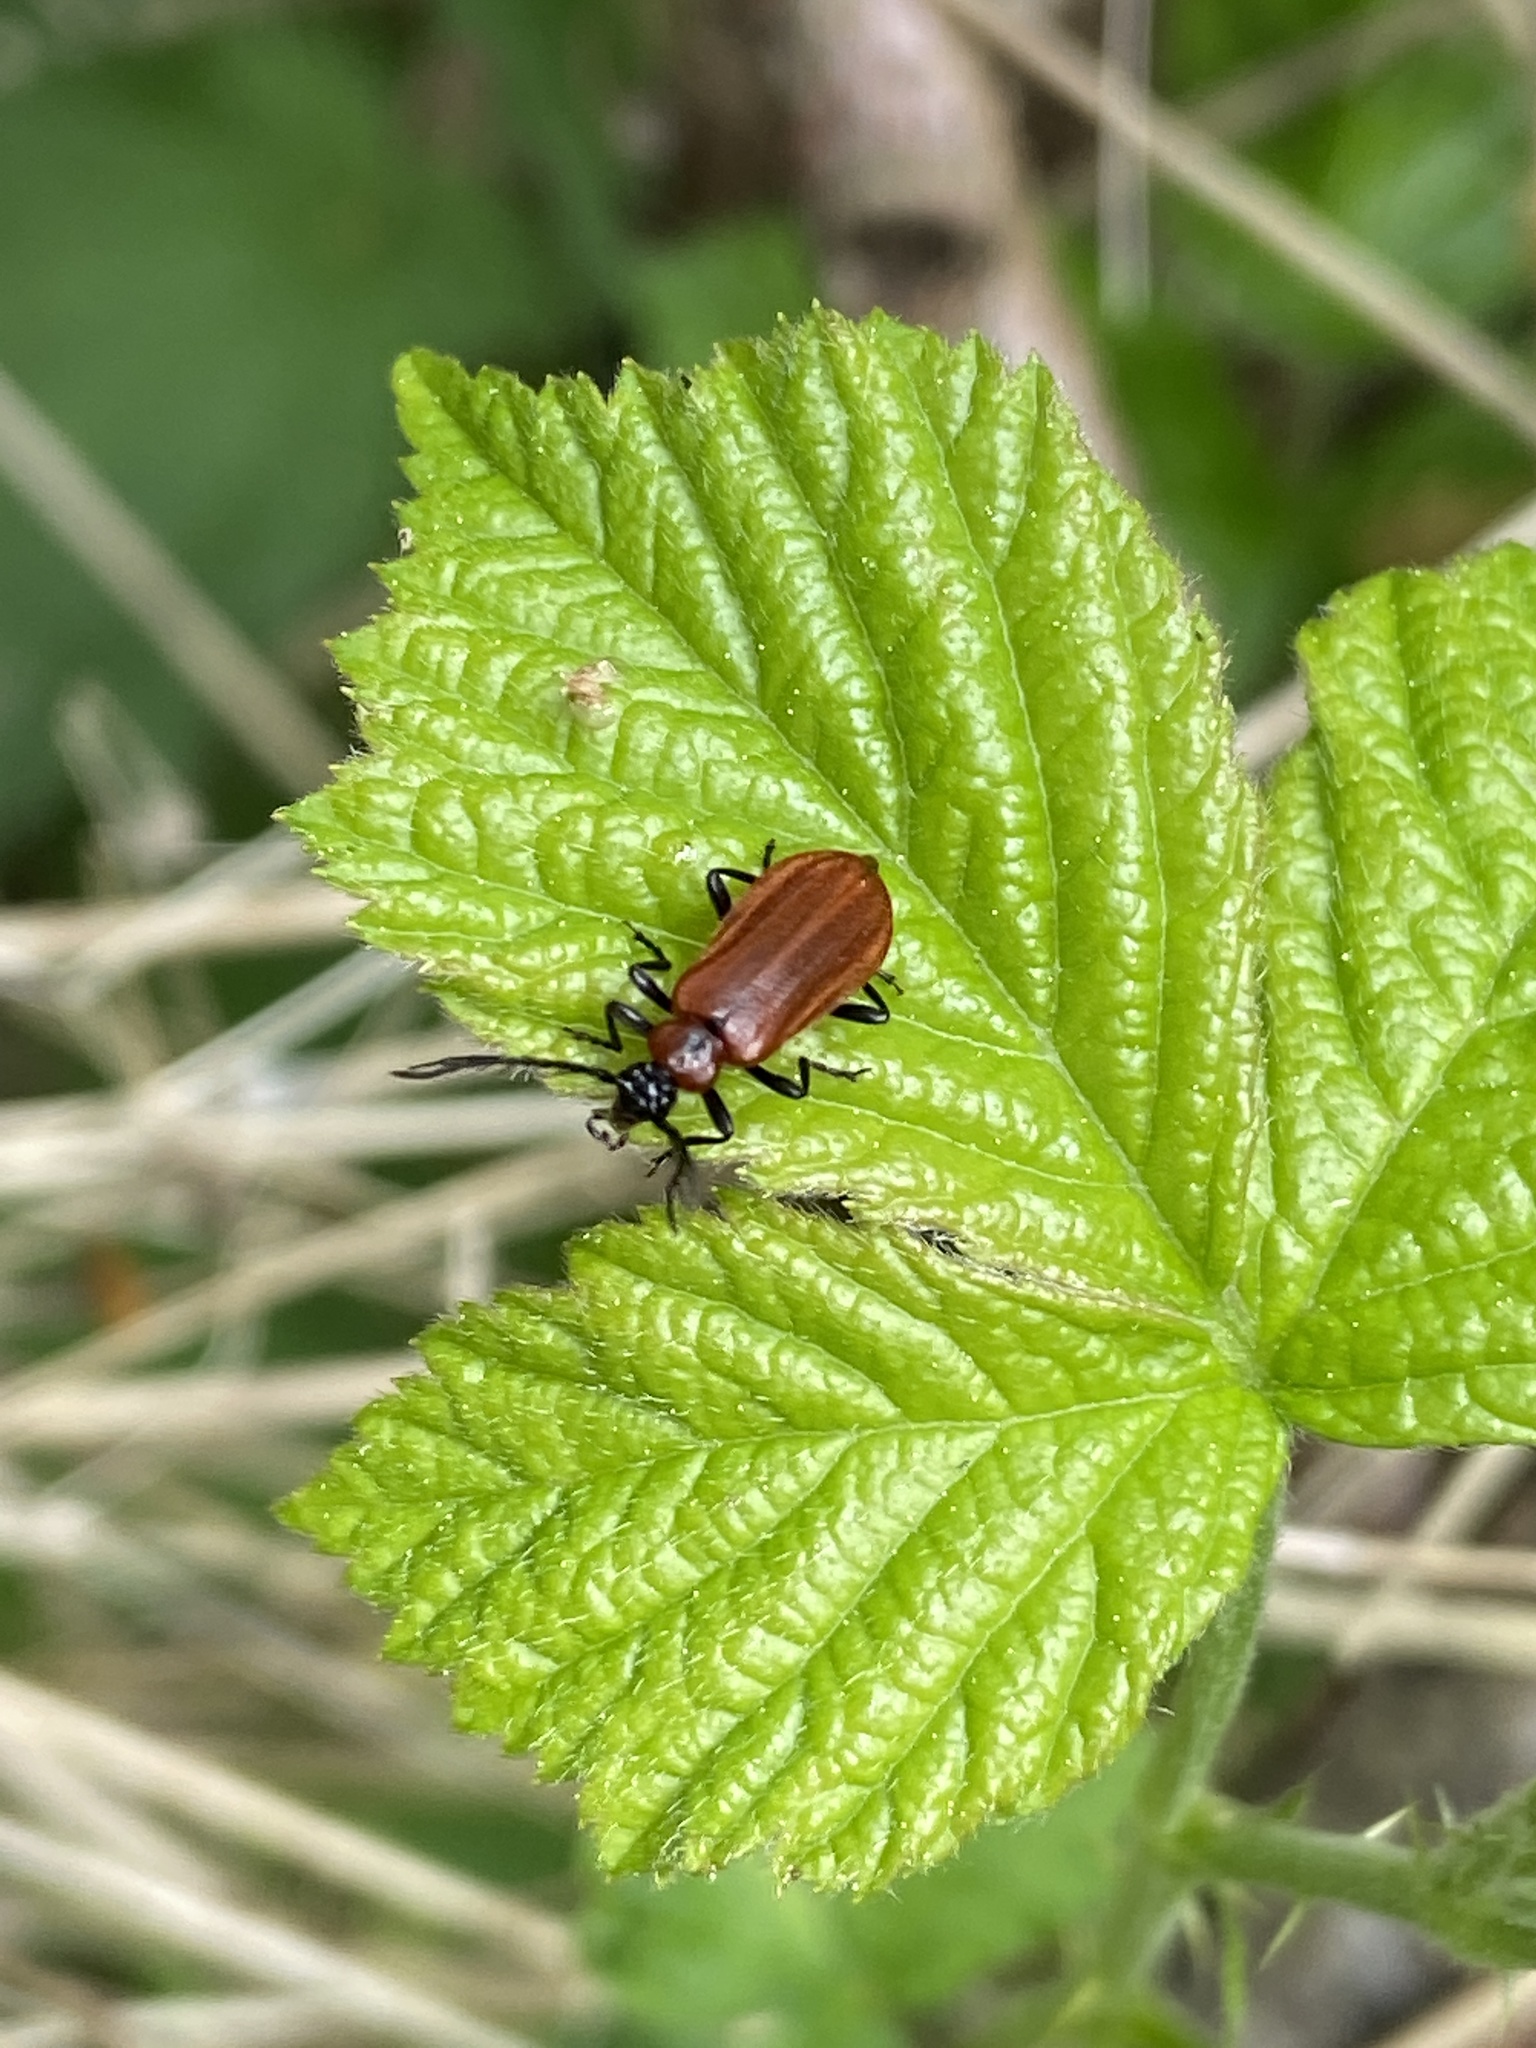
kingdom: Animalia
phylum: Arthropoda
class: Insecta
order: Coleoptera
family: Pyrochroidae
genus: Schizotus
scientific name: Schizotus pectinicornis
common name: Scarce cardinal beetle
